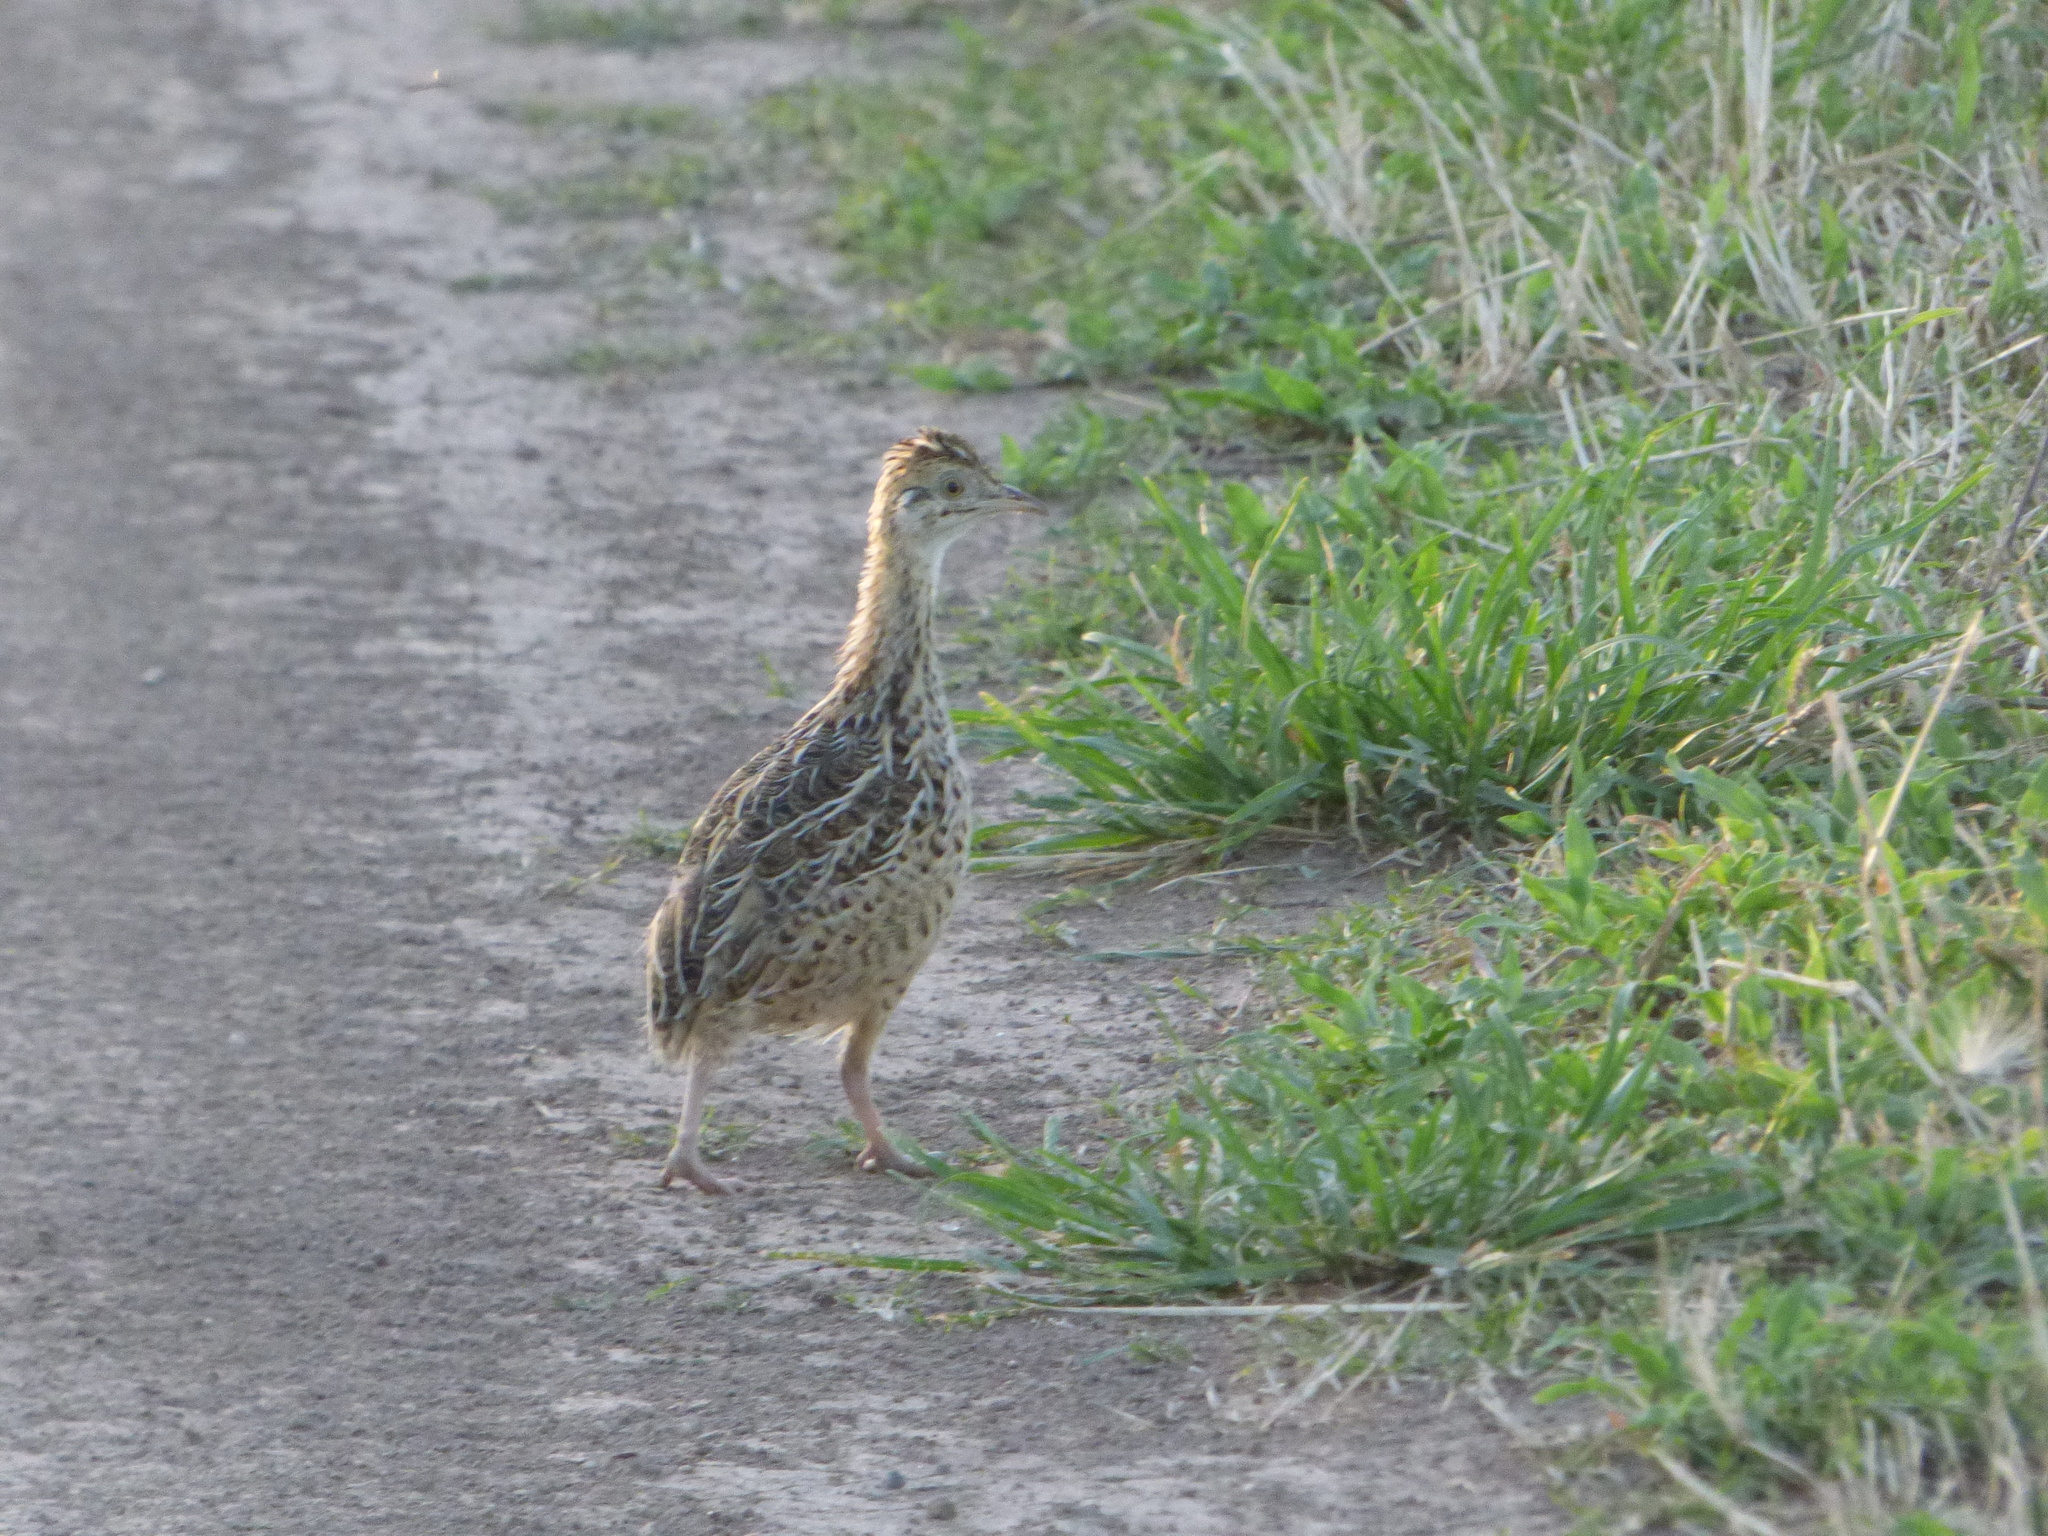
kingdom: Animalia
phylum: Chordata
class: Aves
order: Tinamiformes
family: Tinamidae
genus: Nothura
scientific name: Nothura maculosa
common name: Spotted nothura
